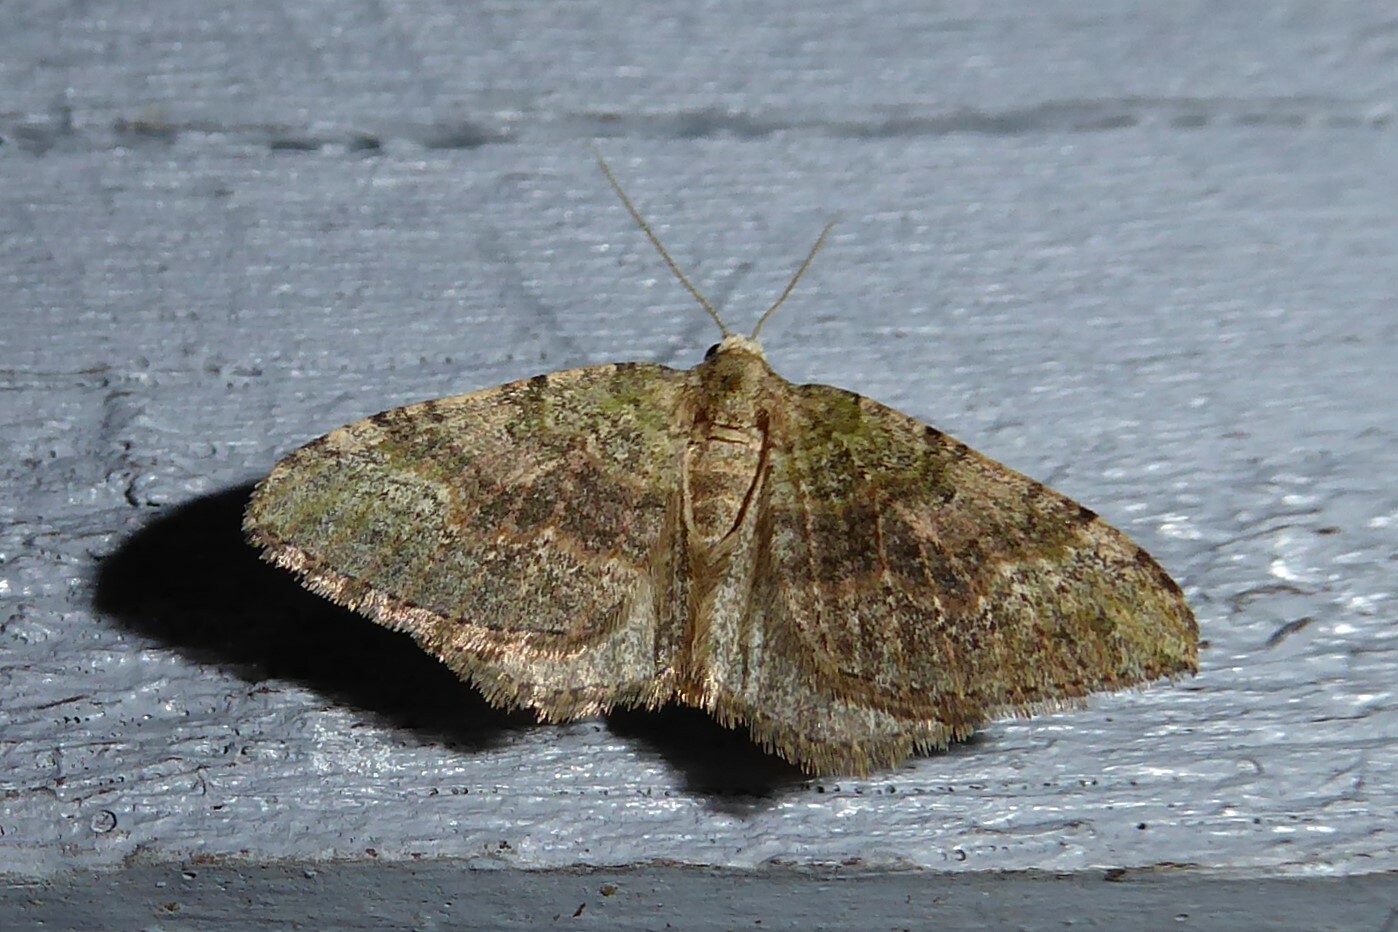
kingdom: Animalia
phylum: Arthropoda
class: Insecta
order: Lepidoptera
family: Geometridae
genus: Epyaxa
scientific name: Epyaxa rosearia
